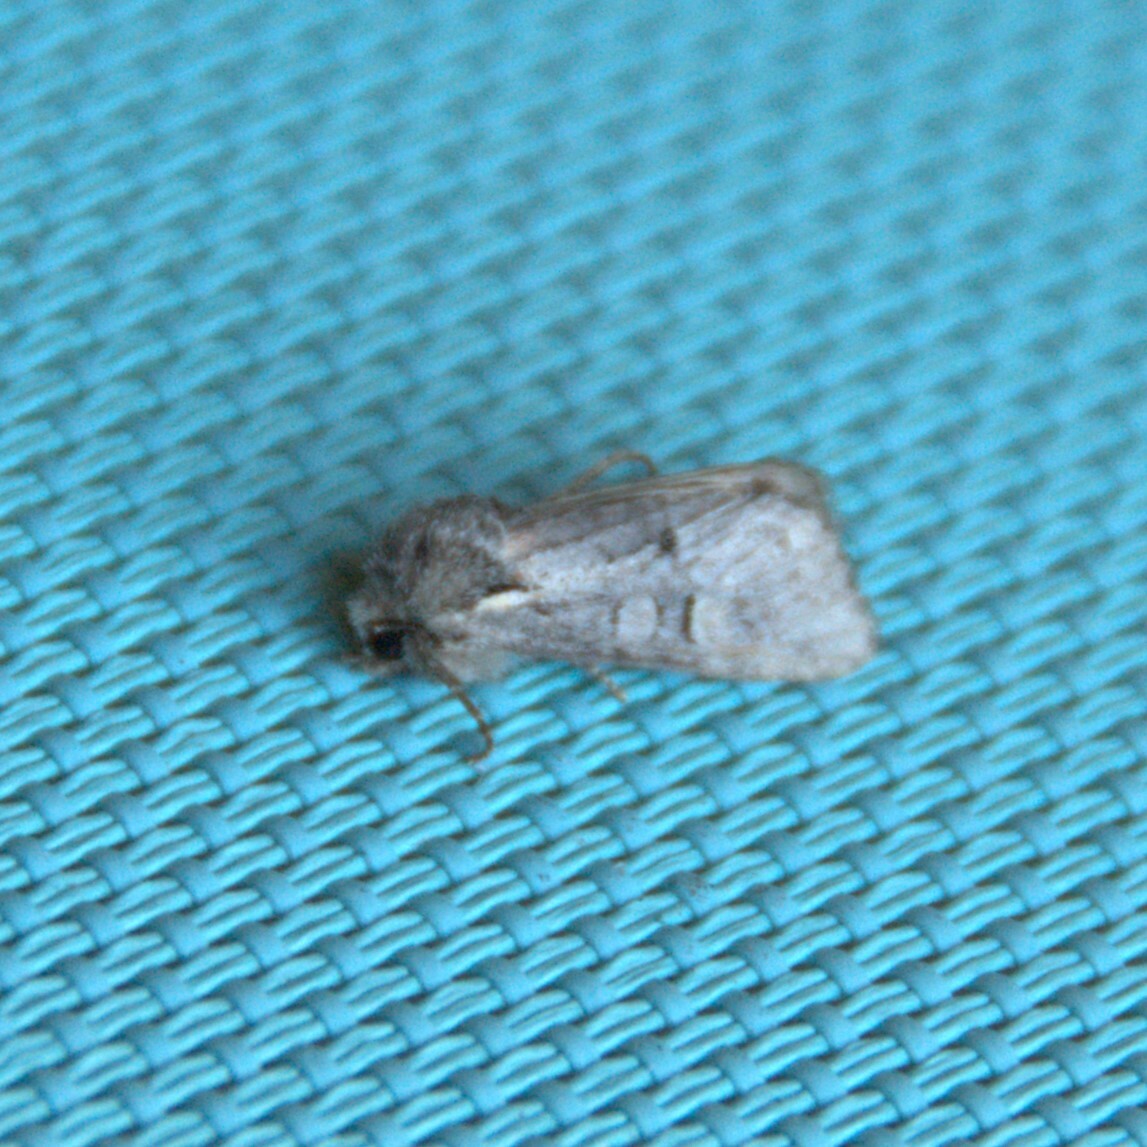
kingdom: Animalia
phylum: Arthropoda
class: Insecta
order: Lepidoptera
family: Noctuidae
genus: Brachylomia
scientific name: Brachylomia viminalis
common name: Minor shoulder-knot
